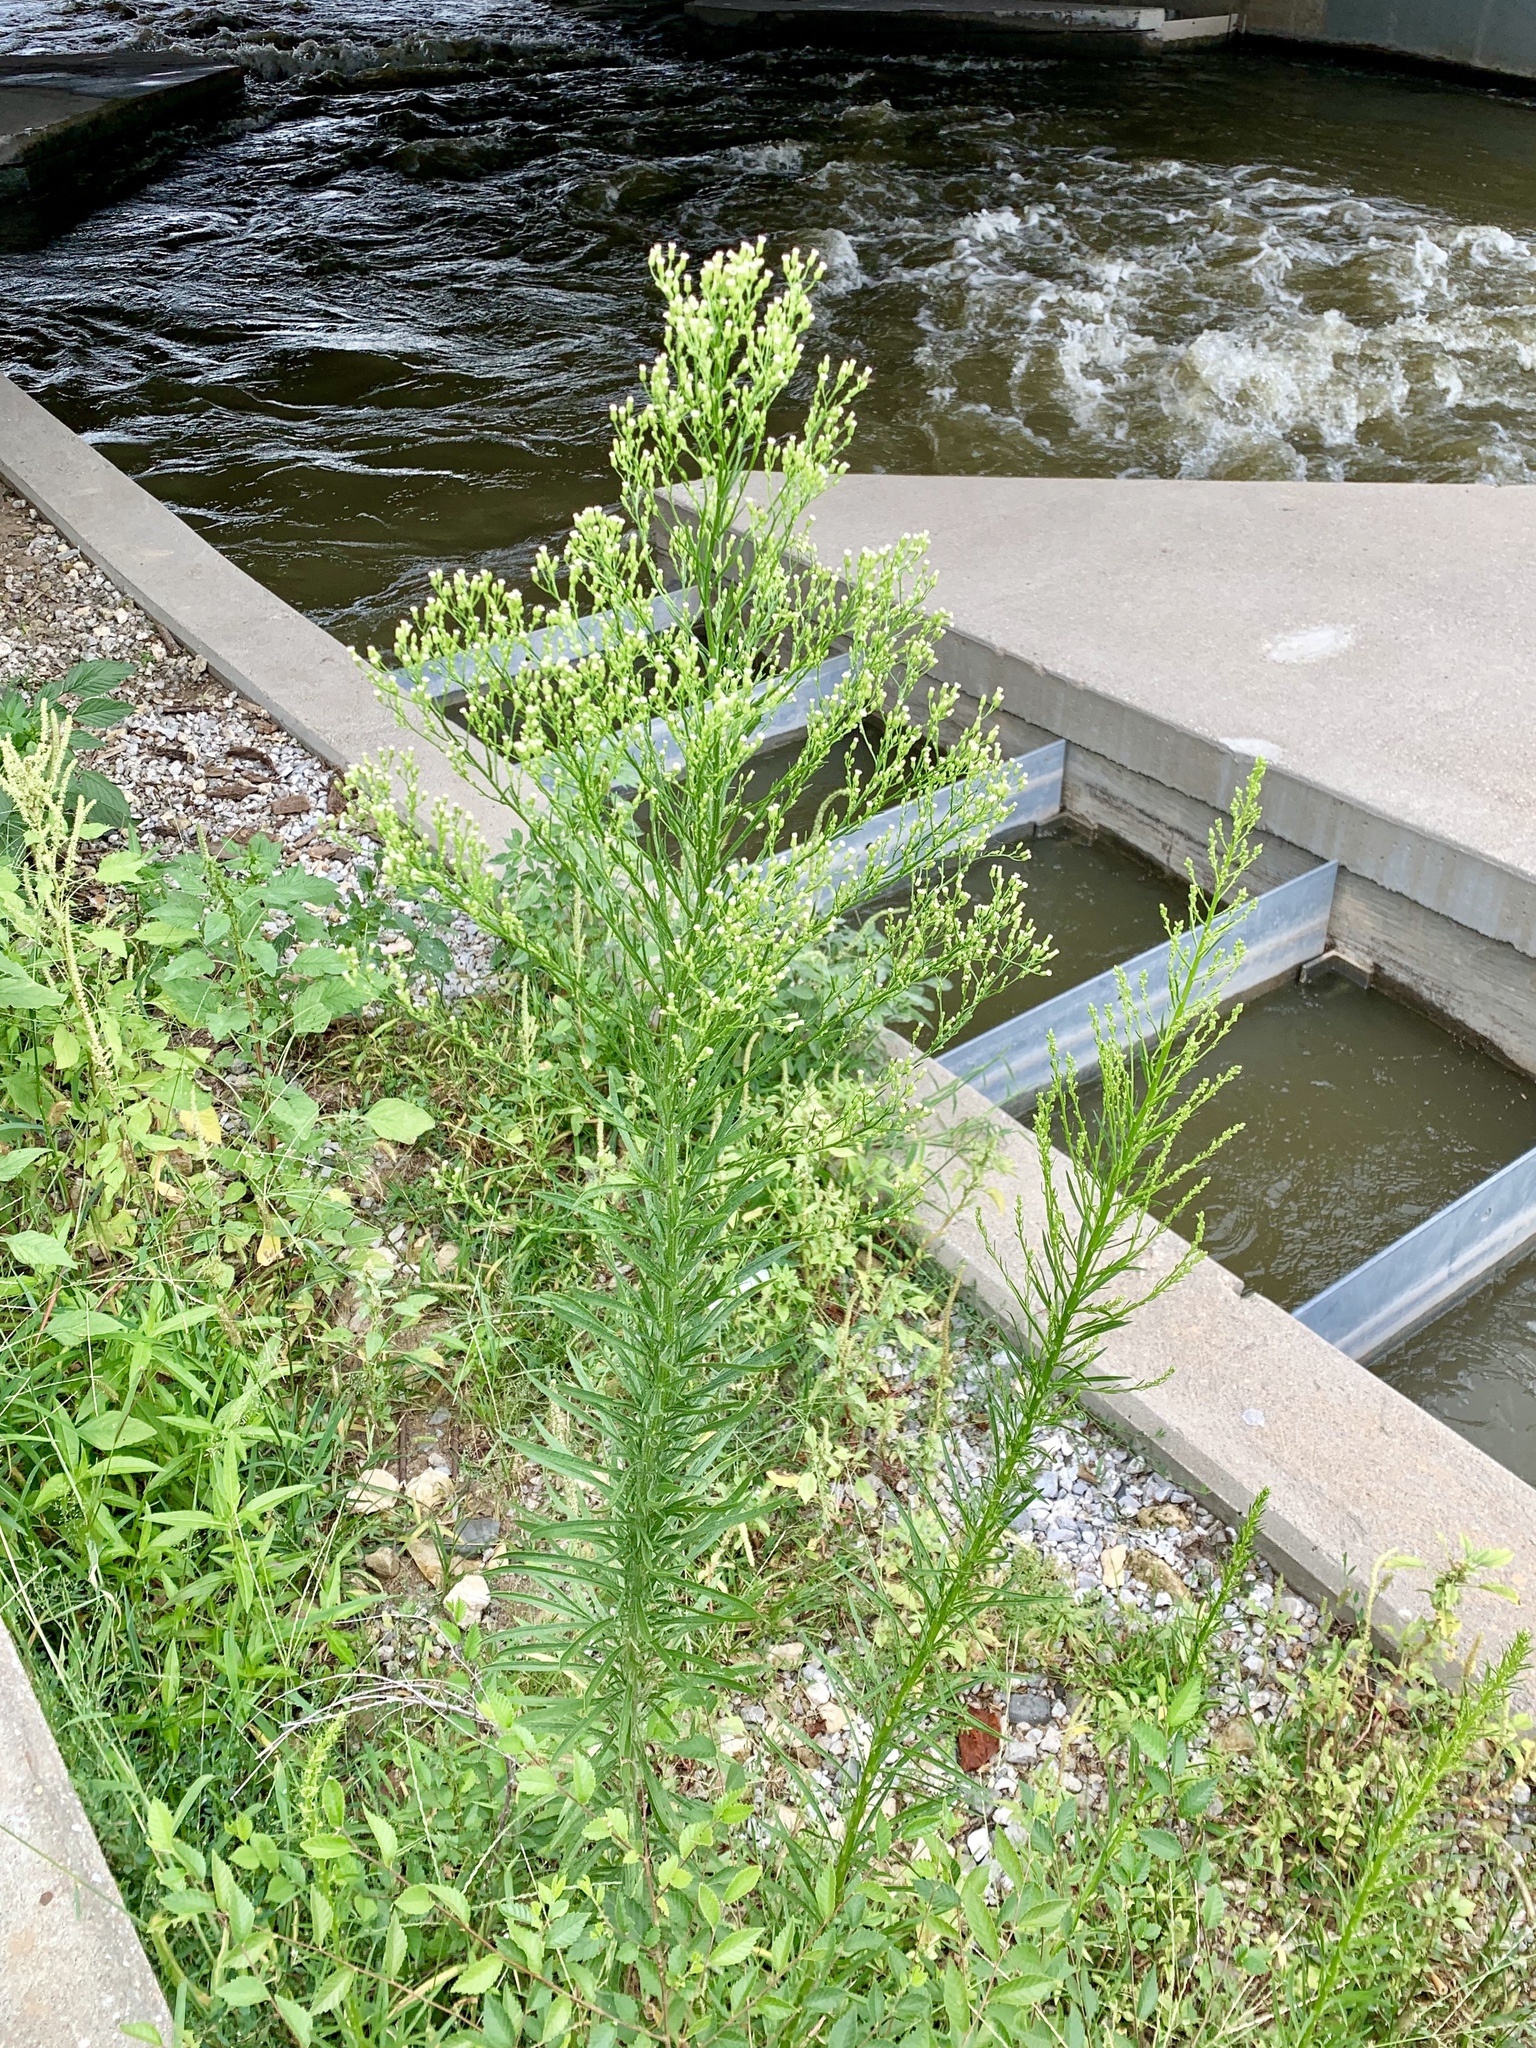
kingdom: Plantae
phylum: Tracheophyta
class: Magnoliopsida
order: Asterales
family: Asteraceae
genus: Erigeron
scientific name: Erigeron canadensis
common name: Canadian fleabane
